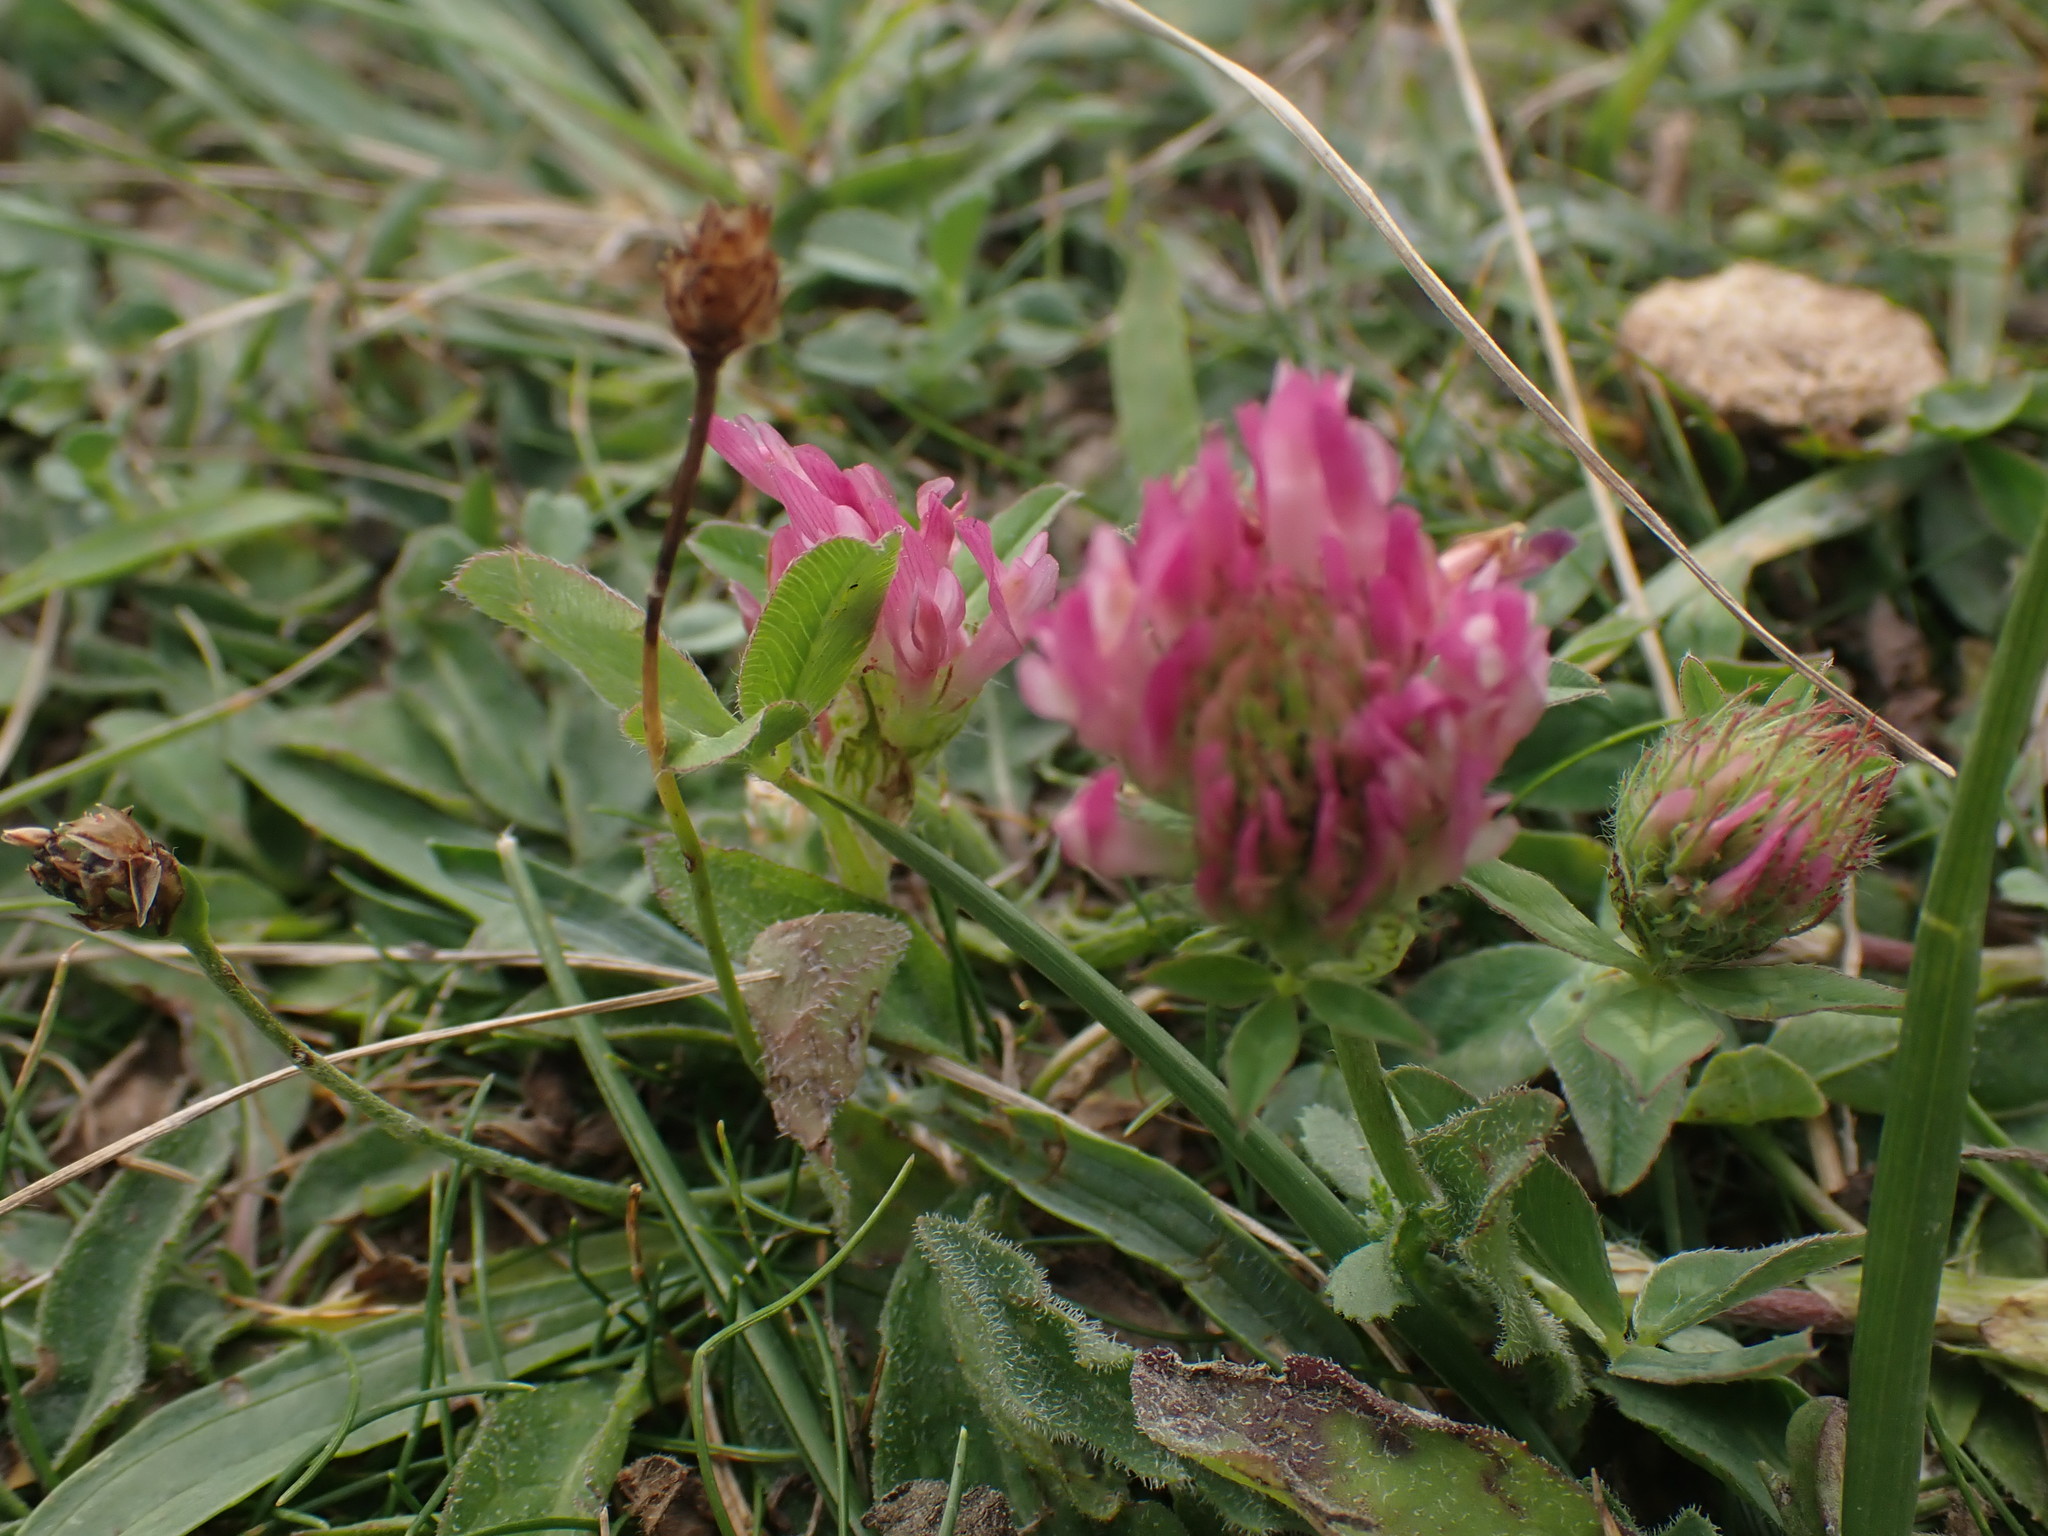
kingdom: Plantae
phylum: Tracheophyta
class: Magnoliopsida
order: Fabales
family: Fabaceae
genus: Trifolium
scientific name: Trifolium pratense
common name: Red clover
